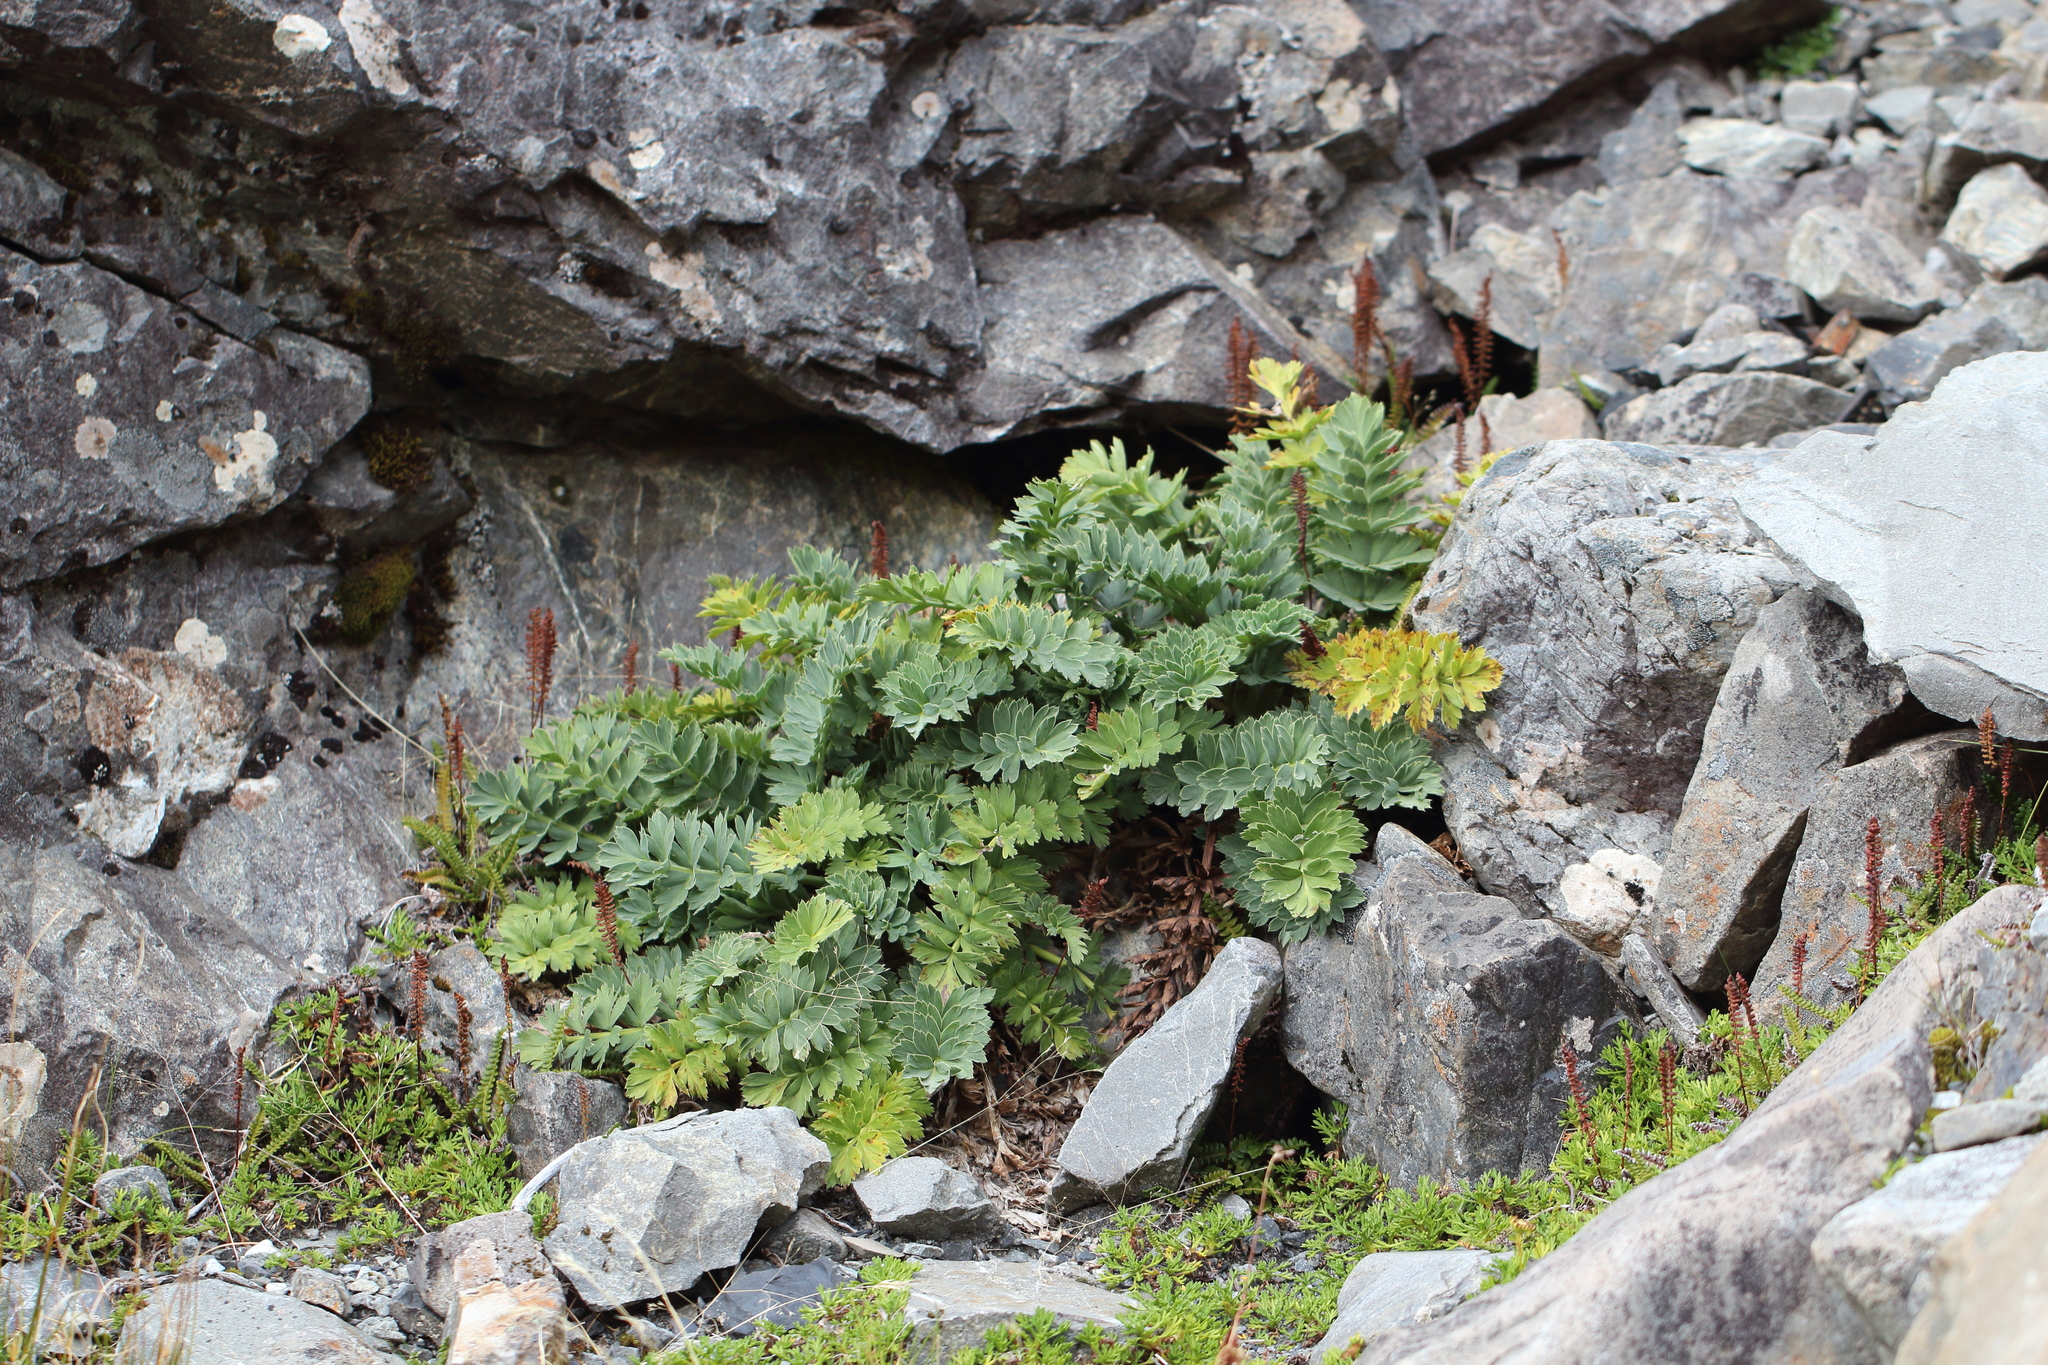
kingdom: Plantae
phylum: Tracheophyta
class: Magnoliopsida
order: Apiales
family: Apiaceae
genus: Anisotome
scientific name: Anisotome pilifera
